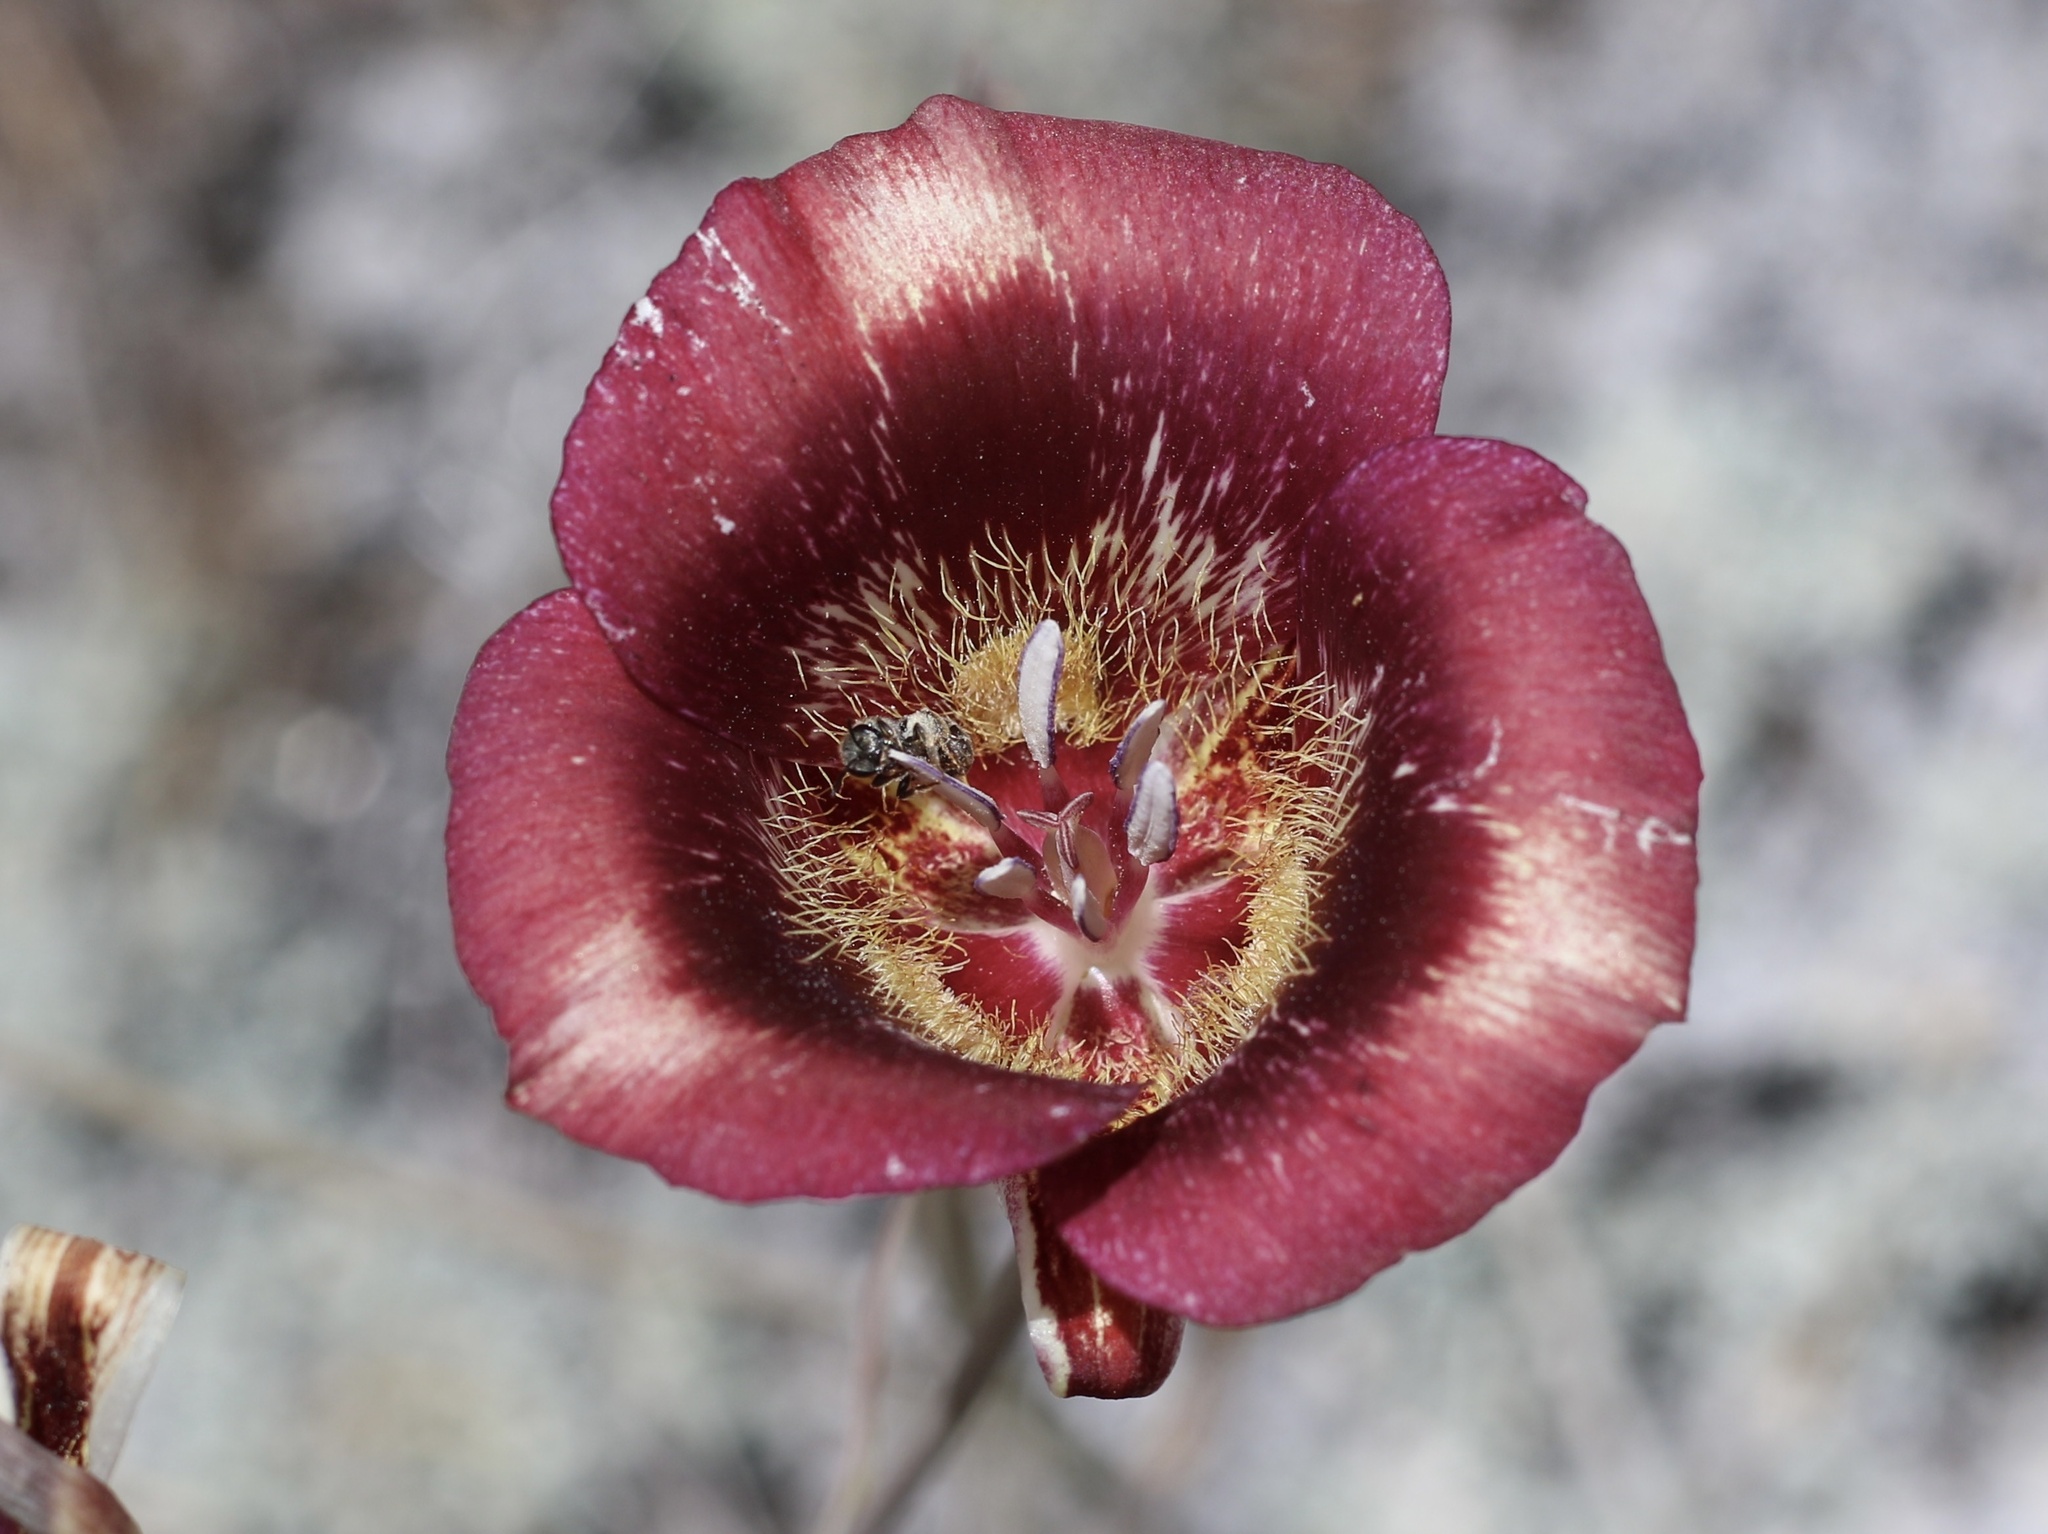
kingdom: Plantae
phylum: Tracheophyta
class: Liliopsida
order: Liliales
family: Liliaceae
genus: Calochortus
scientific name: Calochortus venustus
